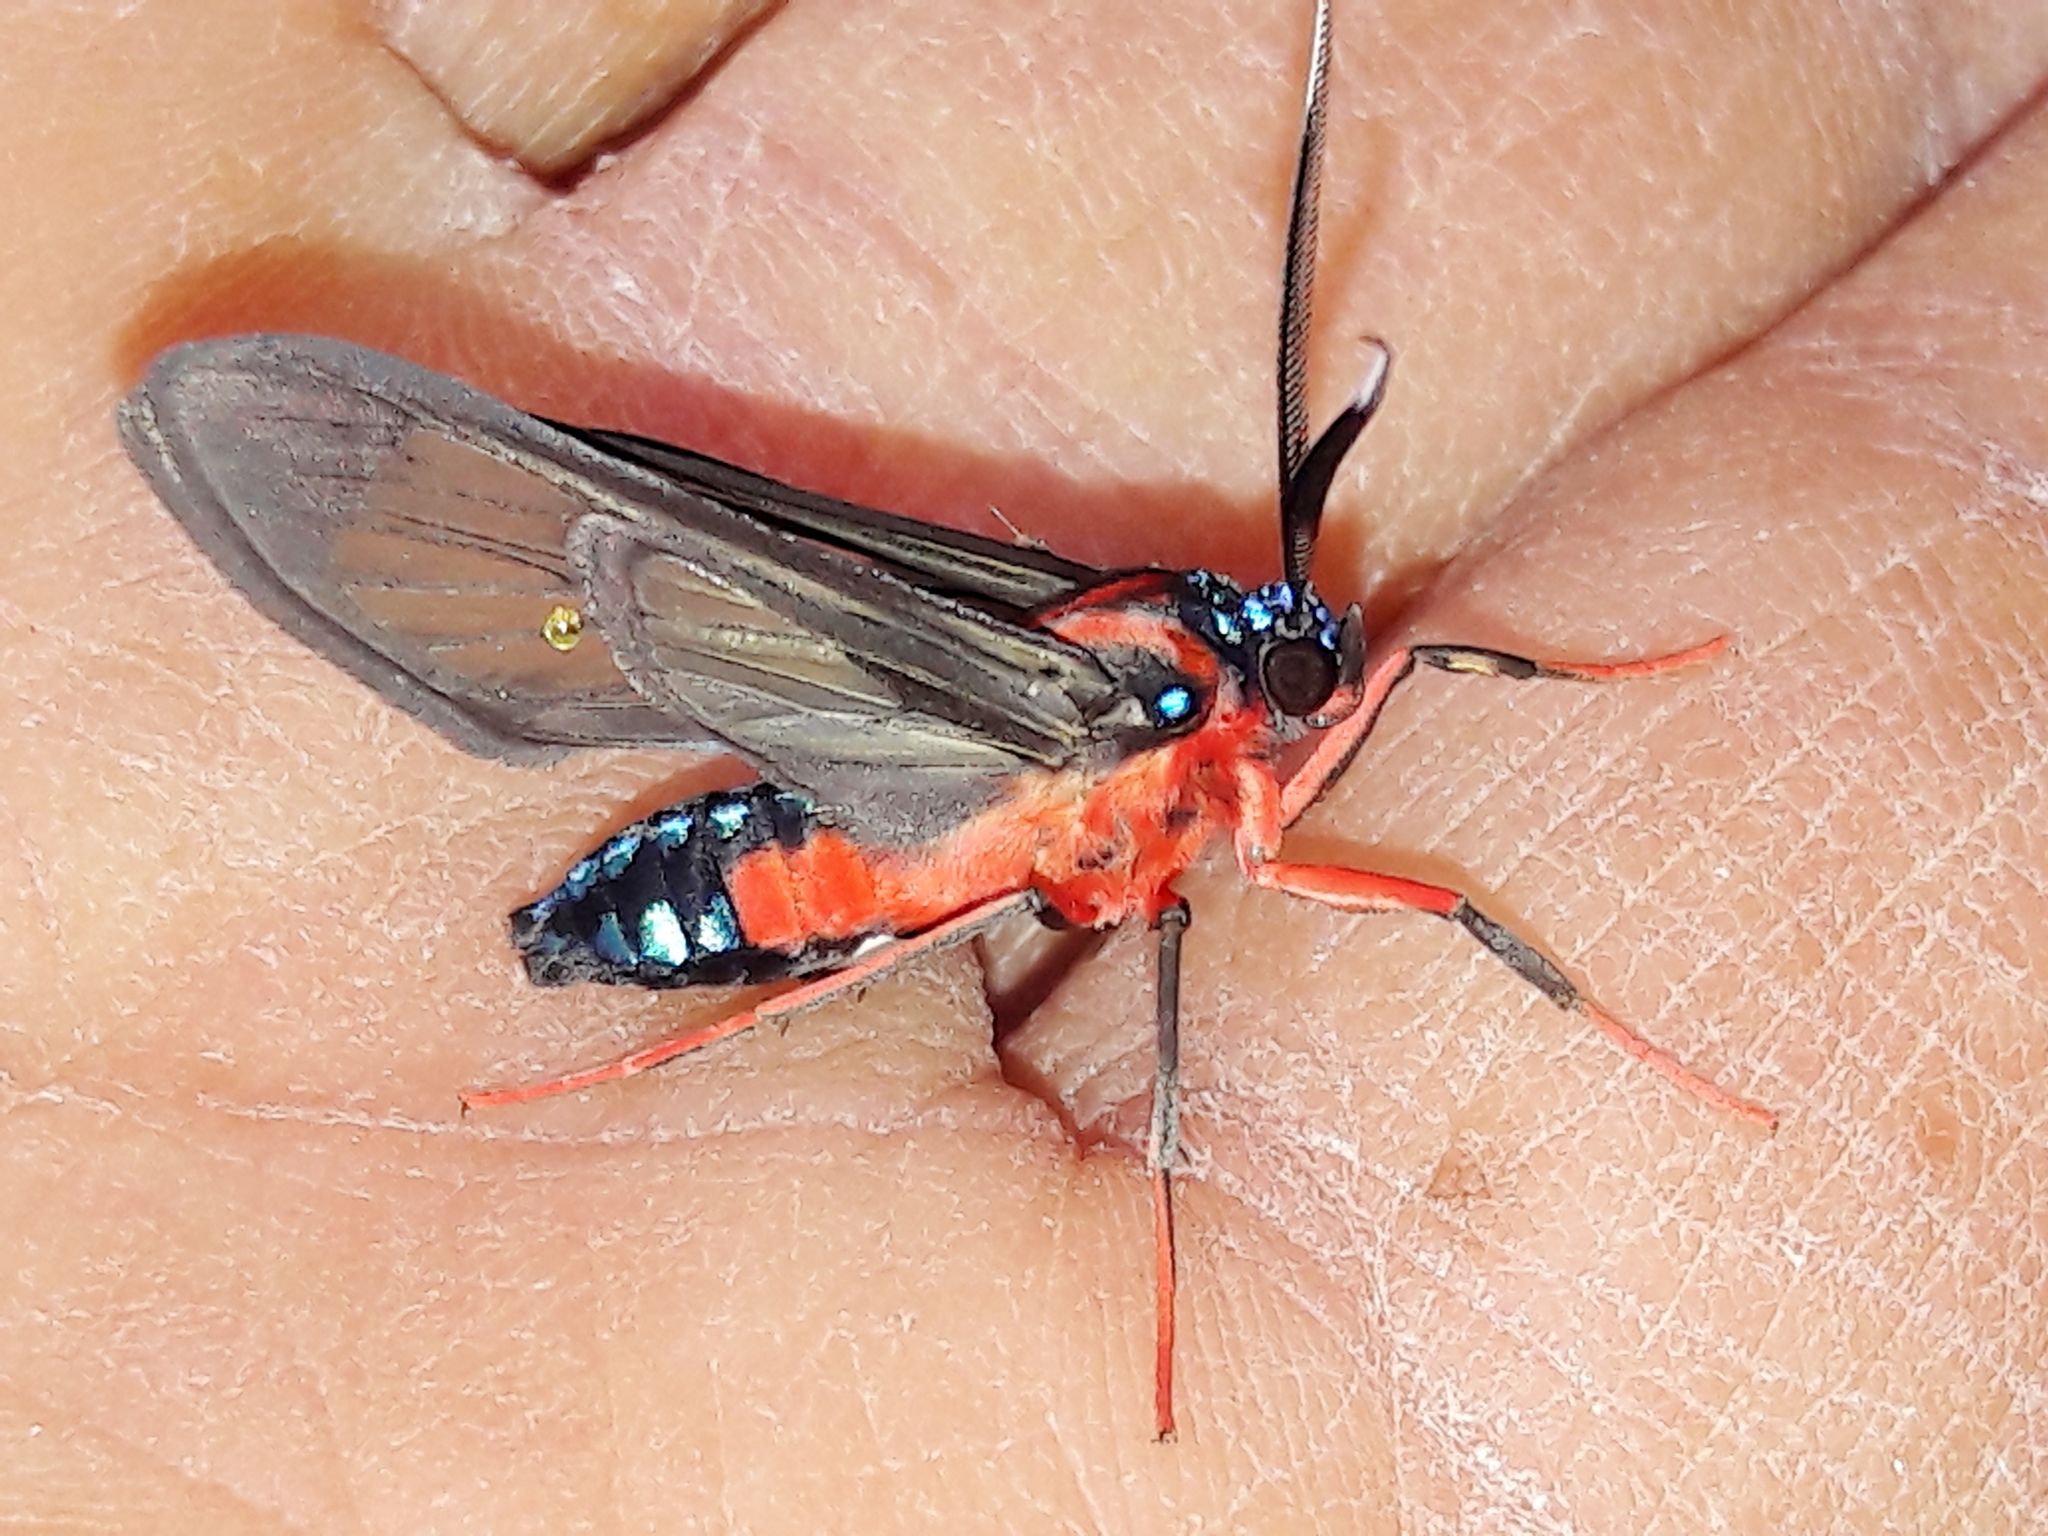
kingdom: Animalia
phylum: Arthropoda
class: Insecta
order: Lepidoptera
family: Erebidae
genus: Cosmosoma
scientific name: Cosmosoma auge
